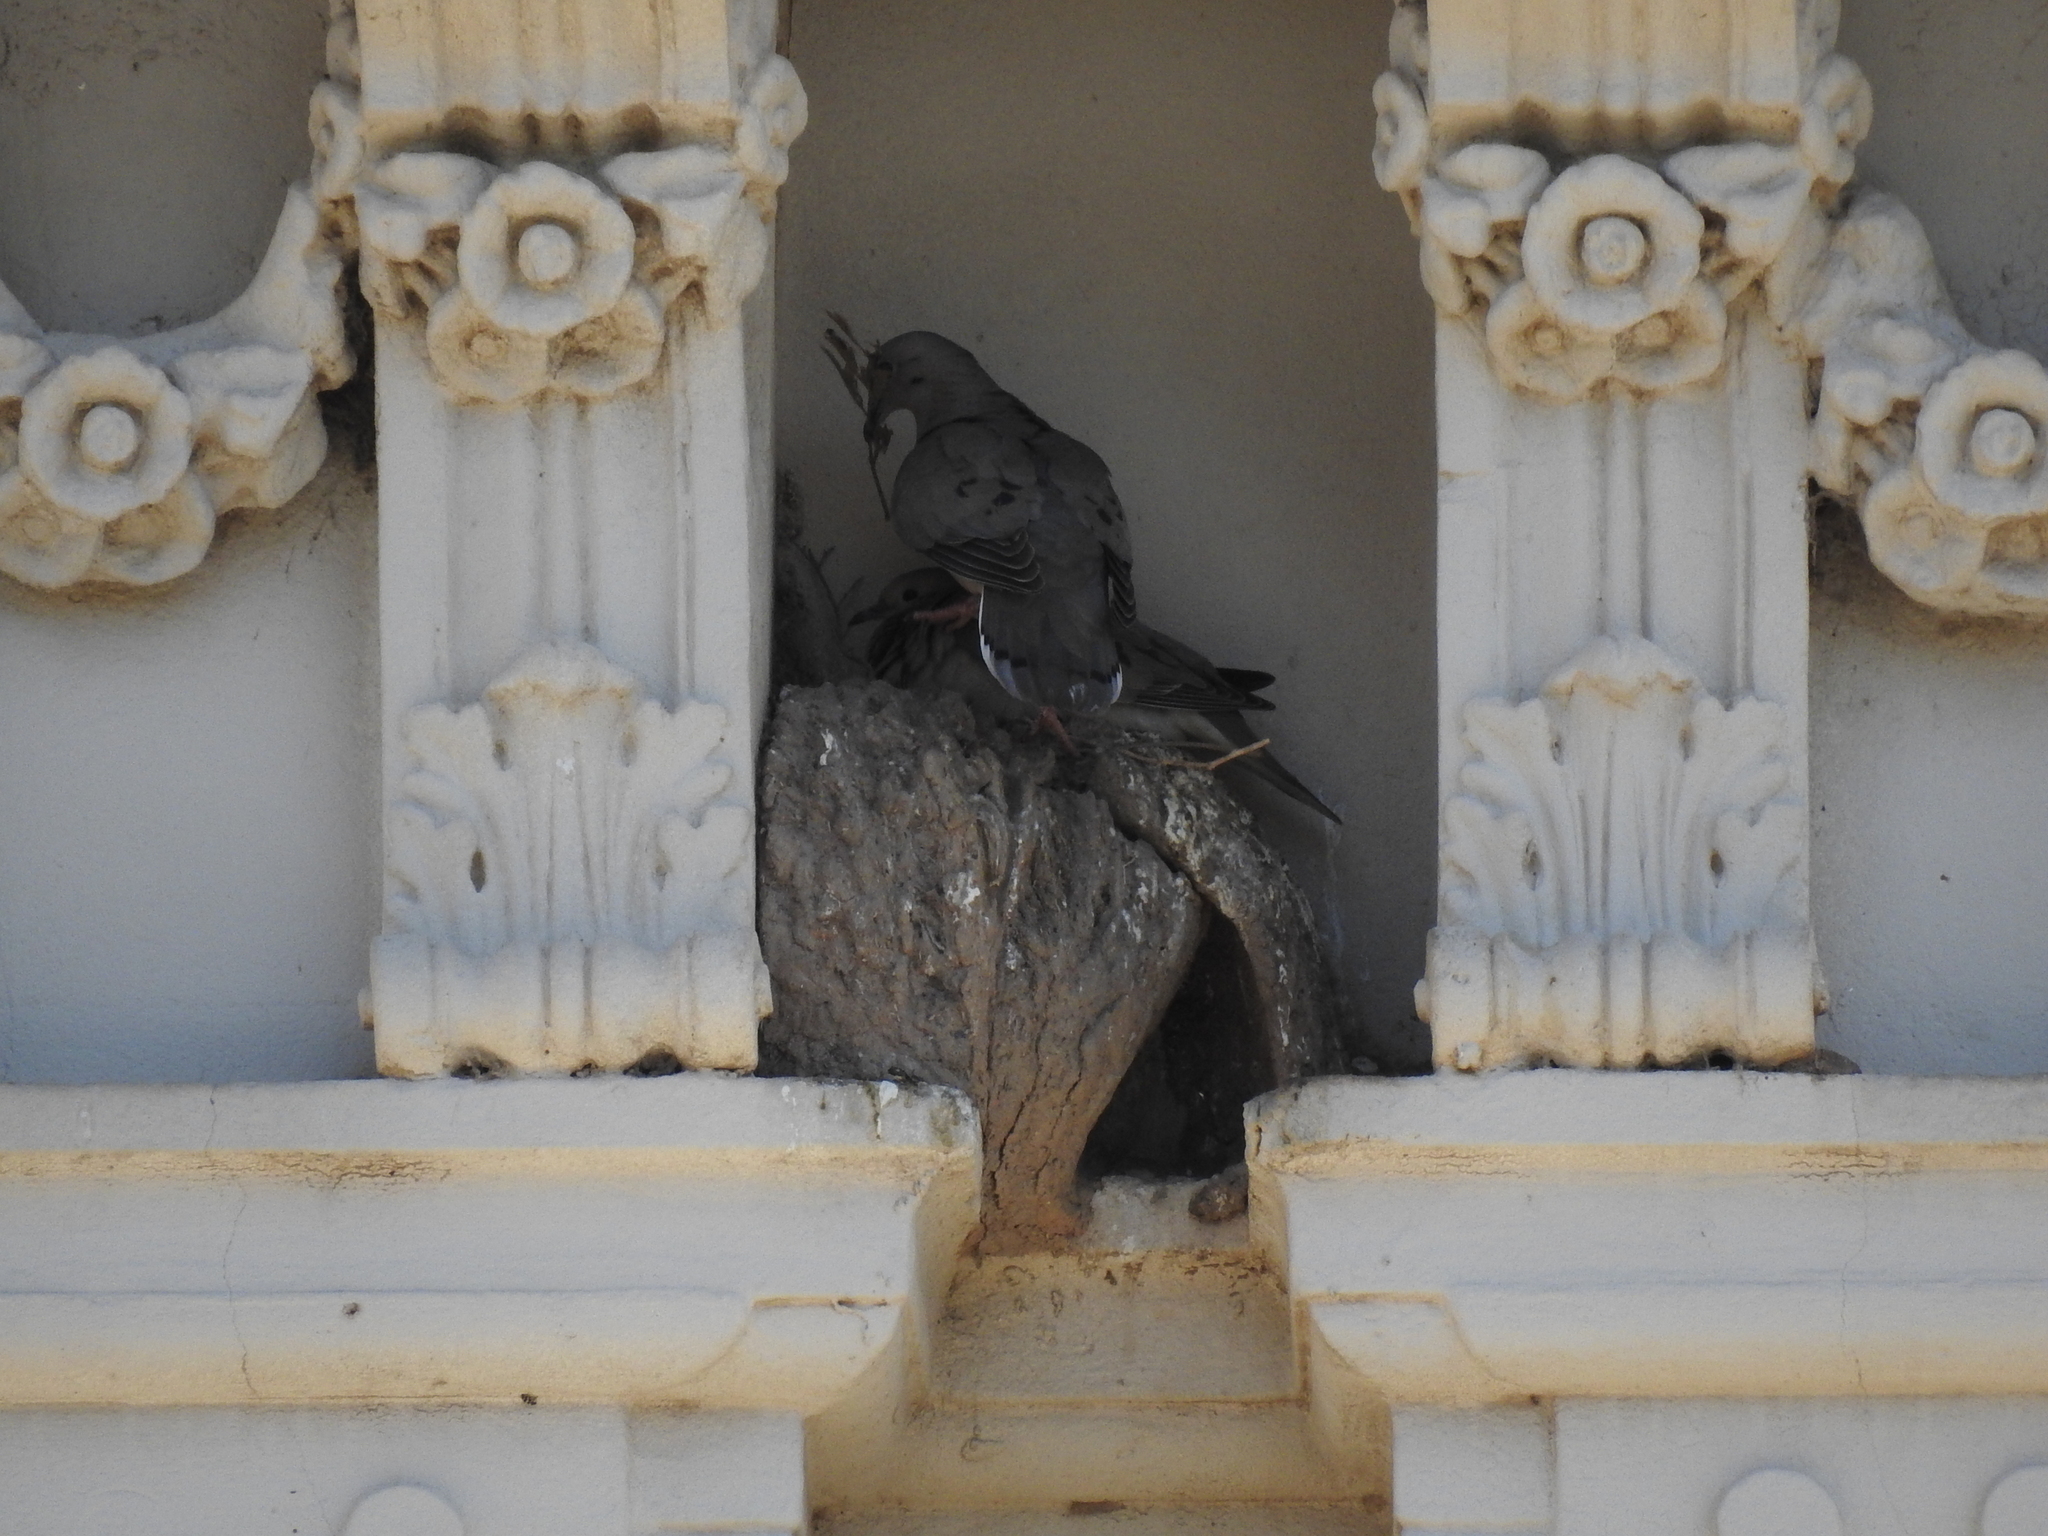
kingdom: Animalia
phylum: Chordata
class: Aves
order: Columbiformes
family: Columbidae
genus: Zenaida
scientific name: Zenaida auriculata
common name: Eared dove
